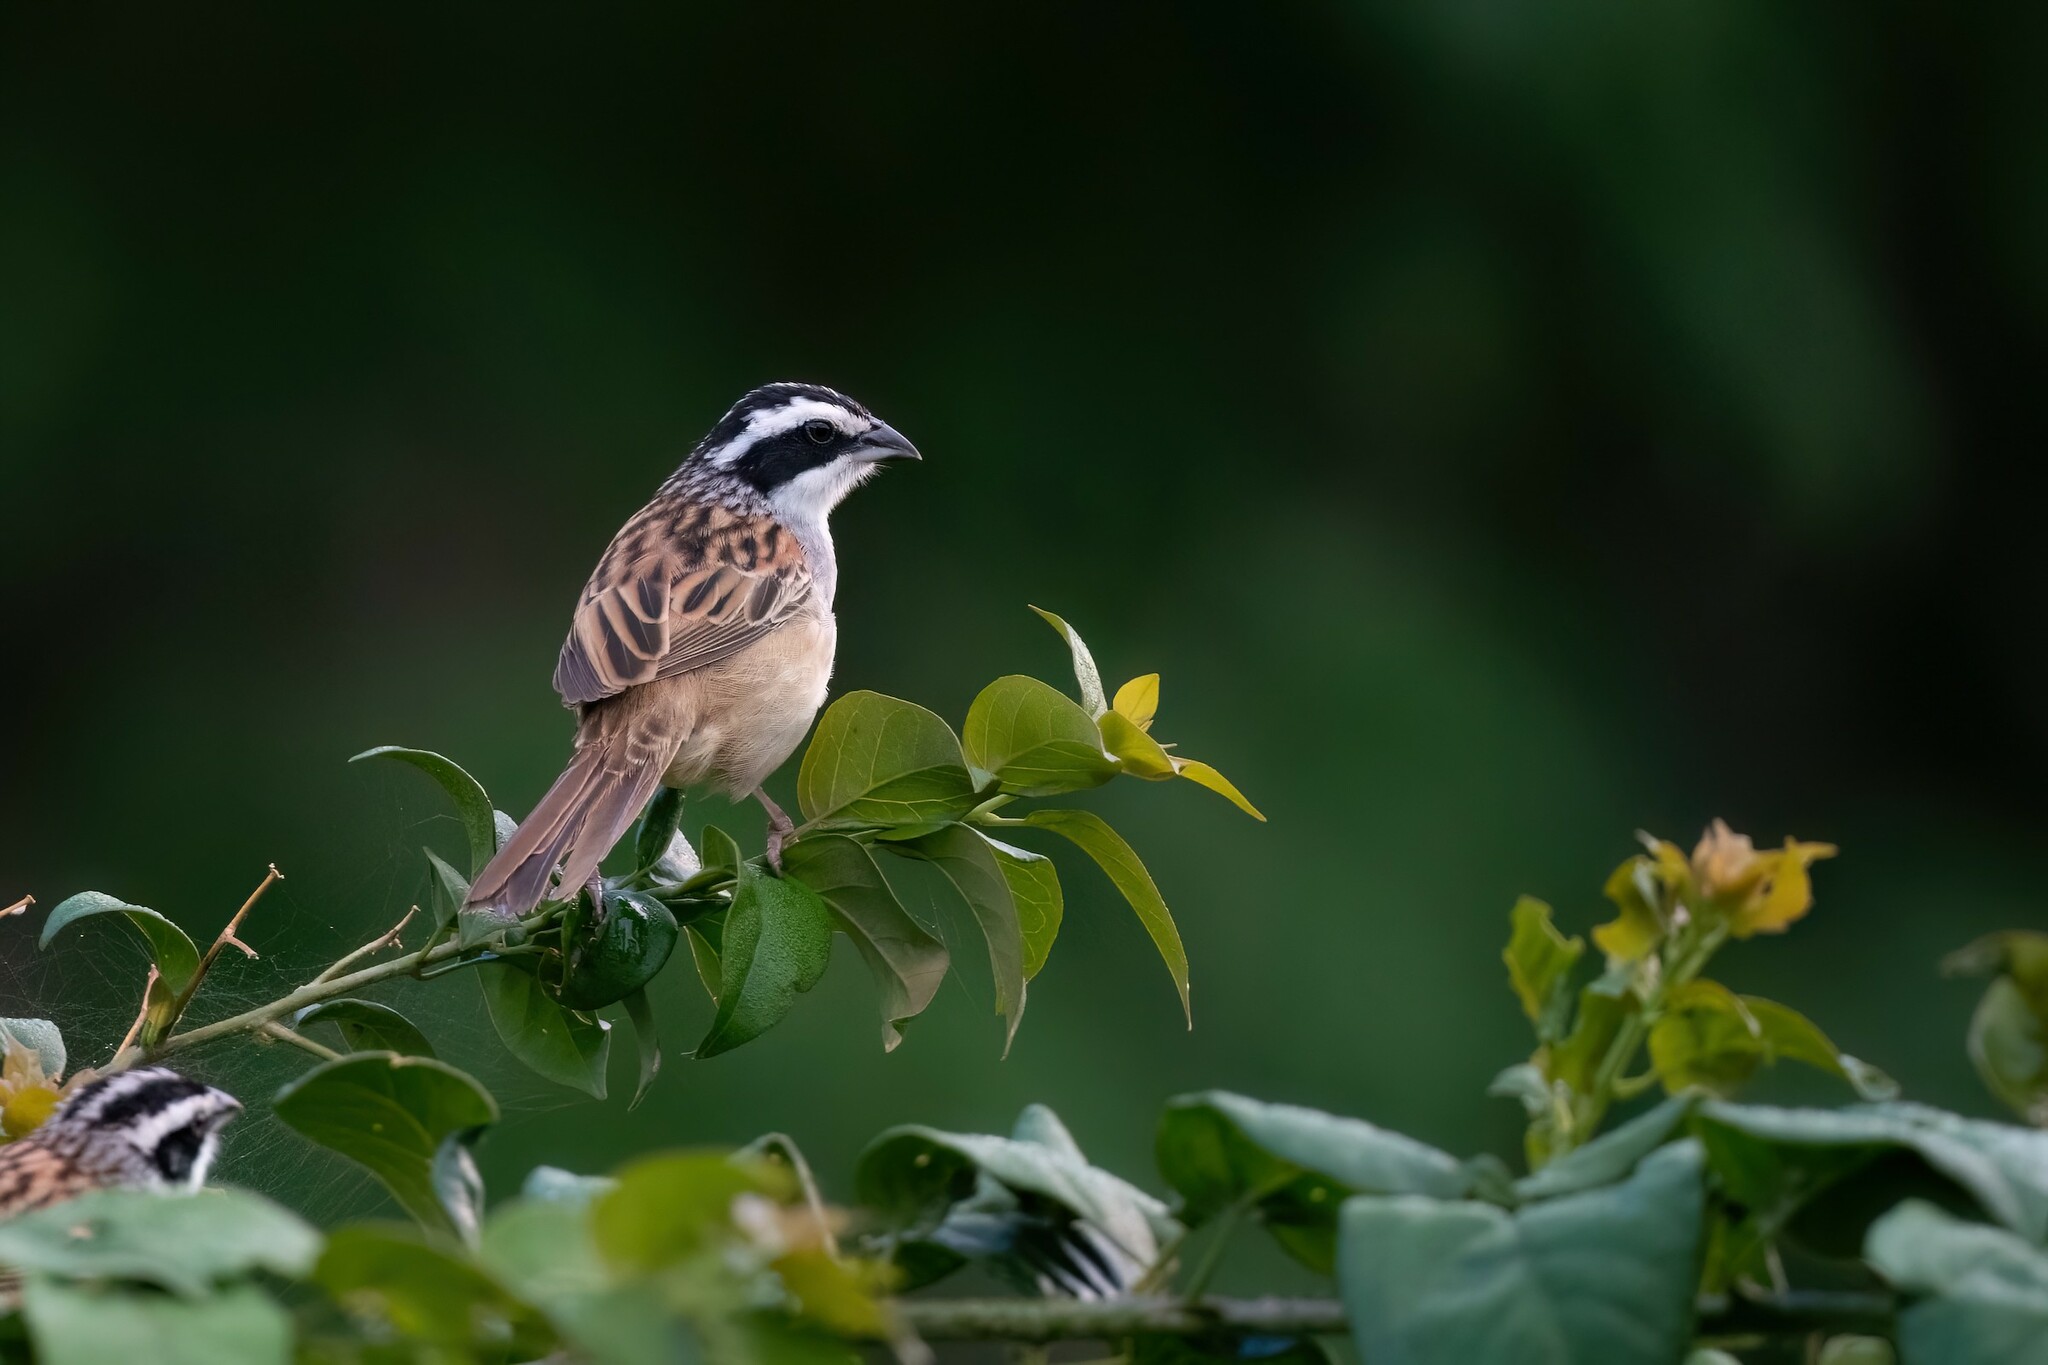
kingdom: Animalia
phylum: Chordata
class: Aves
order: Passeriformes
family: Passerellidae
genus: Peucaea
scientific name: Peucaea ruficauda
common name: Stripe-headed sparrow
